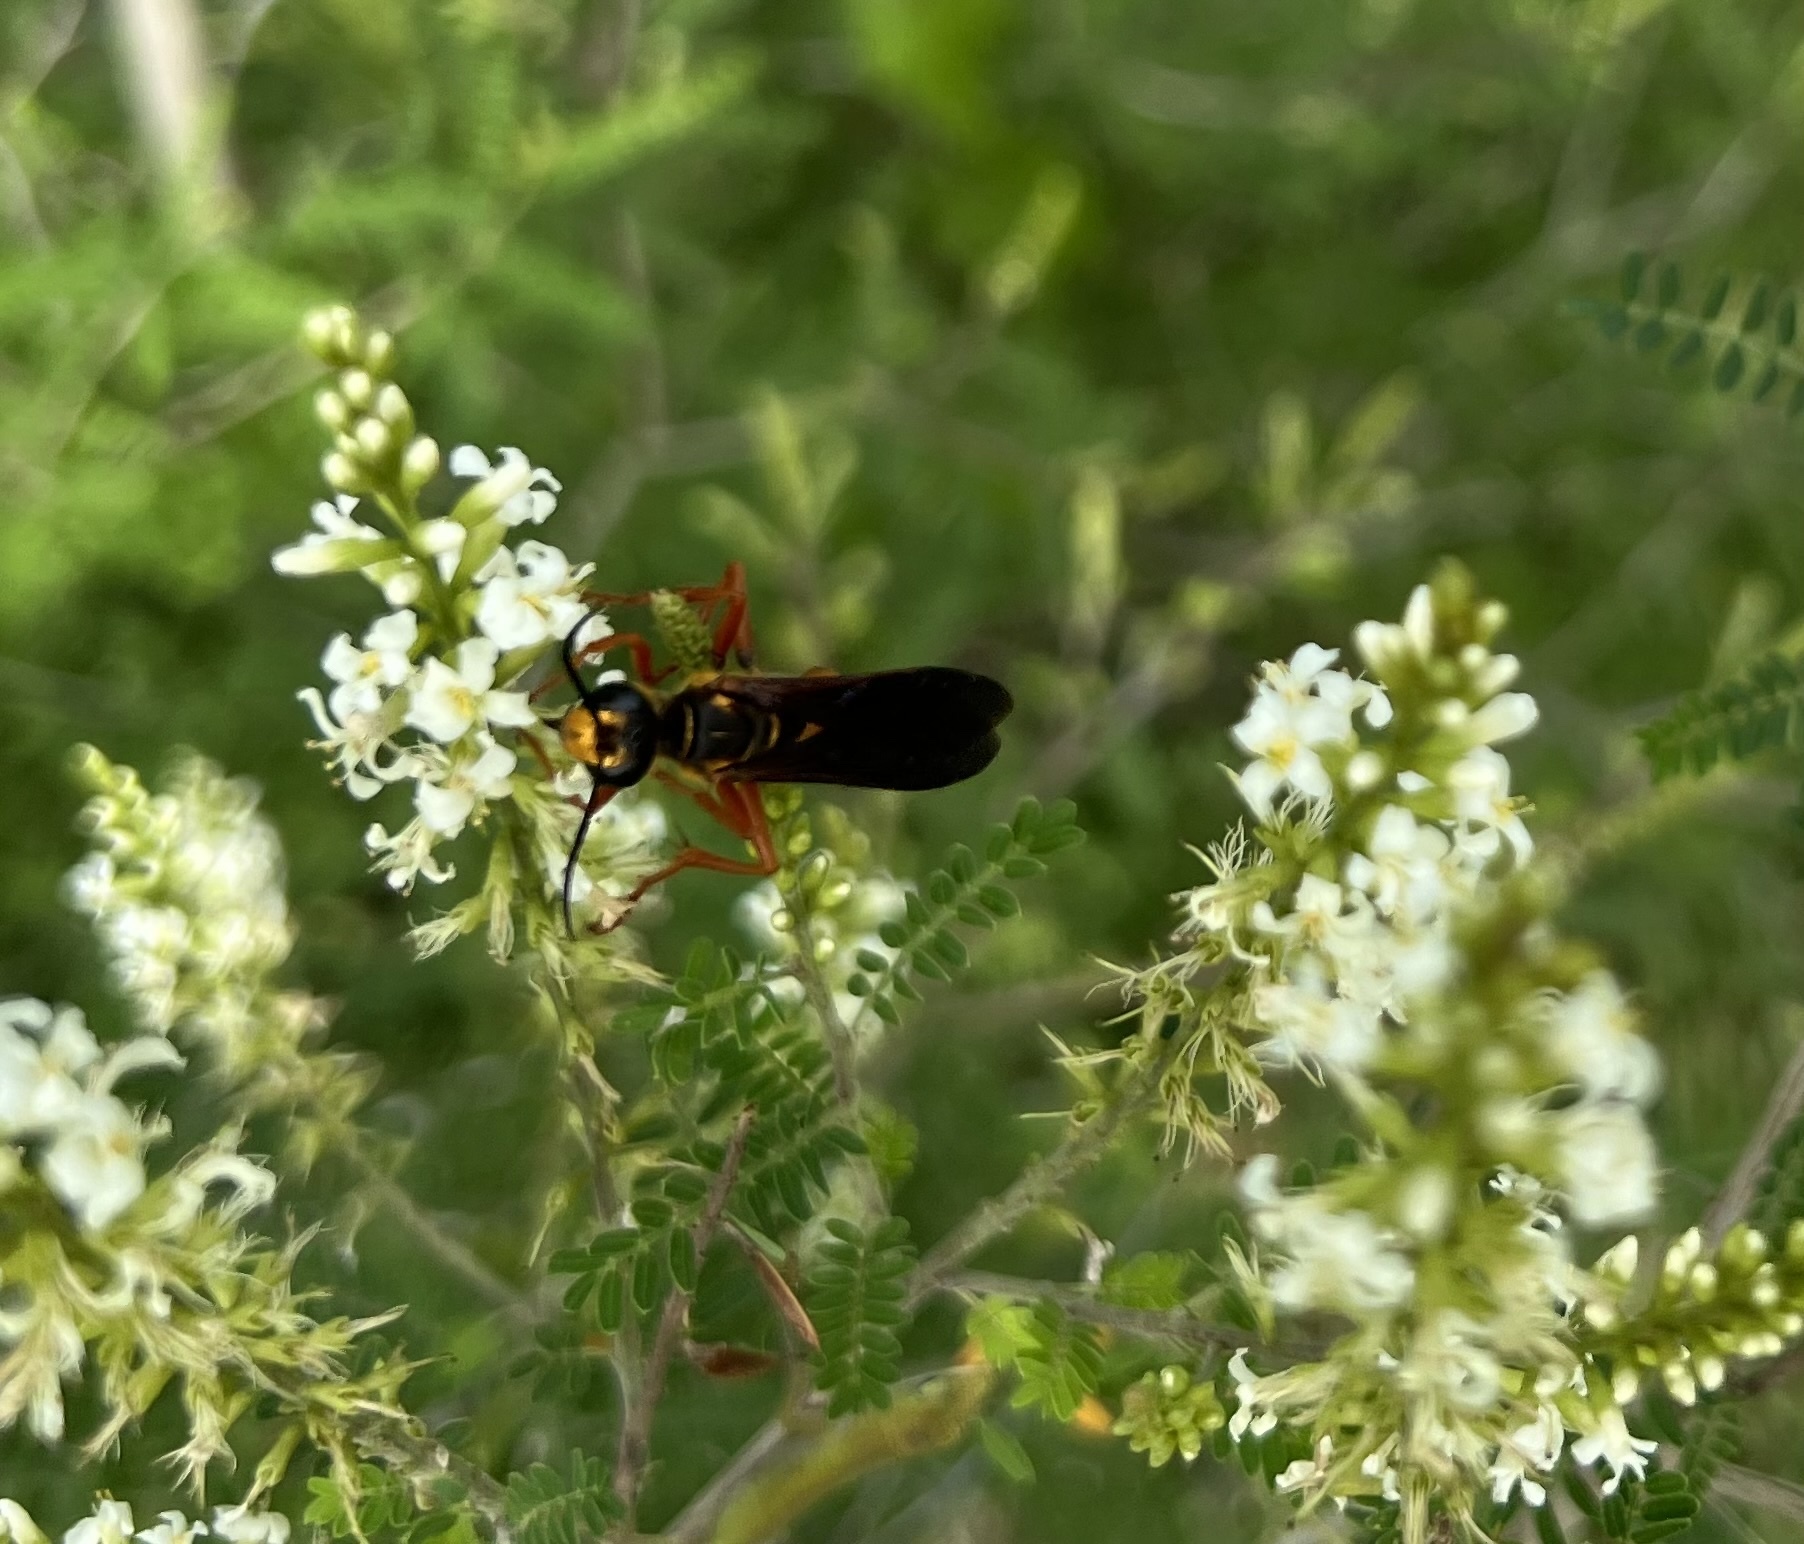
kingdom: Animalia
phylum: Arthropoda
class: Insecta
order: Hymenoptera
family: Sphecidae
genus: Sphex
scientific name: Sphex ichneumoneus
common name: Great golden digger wasp
